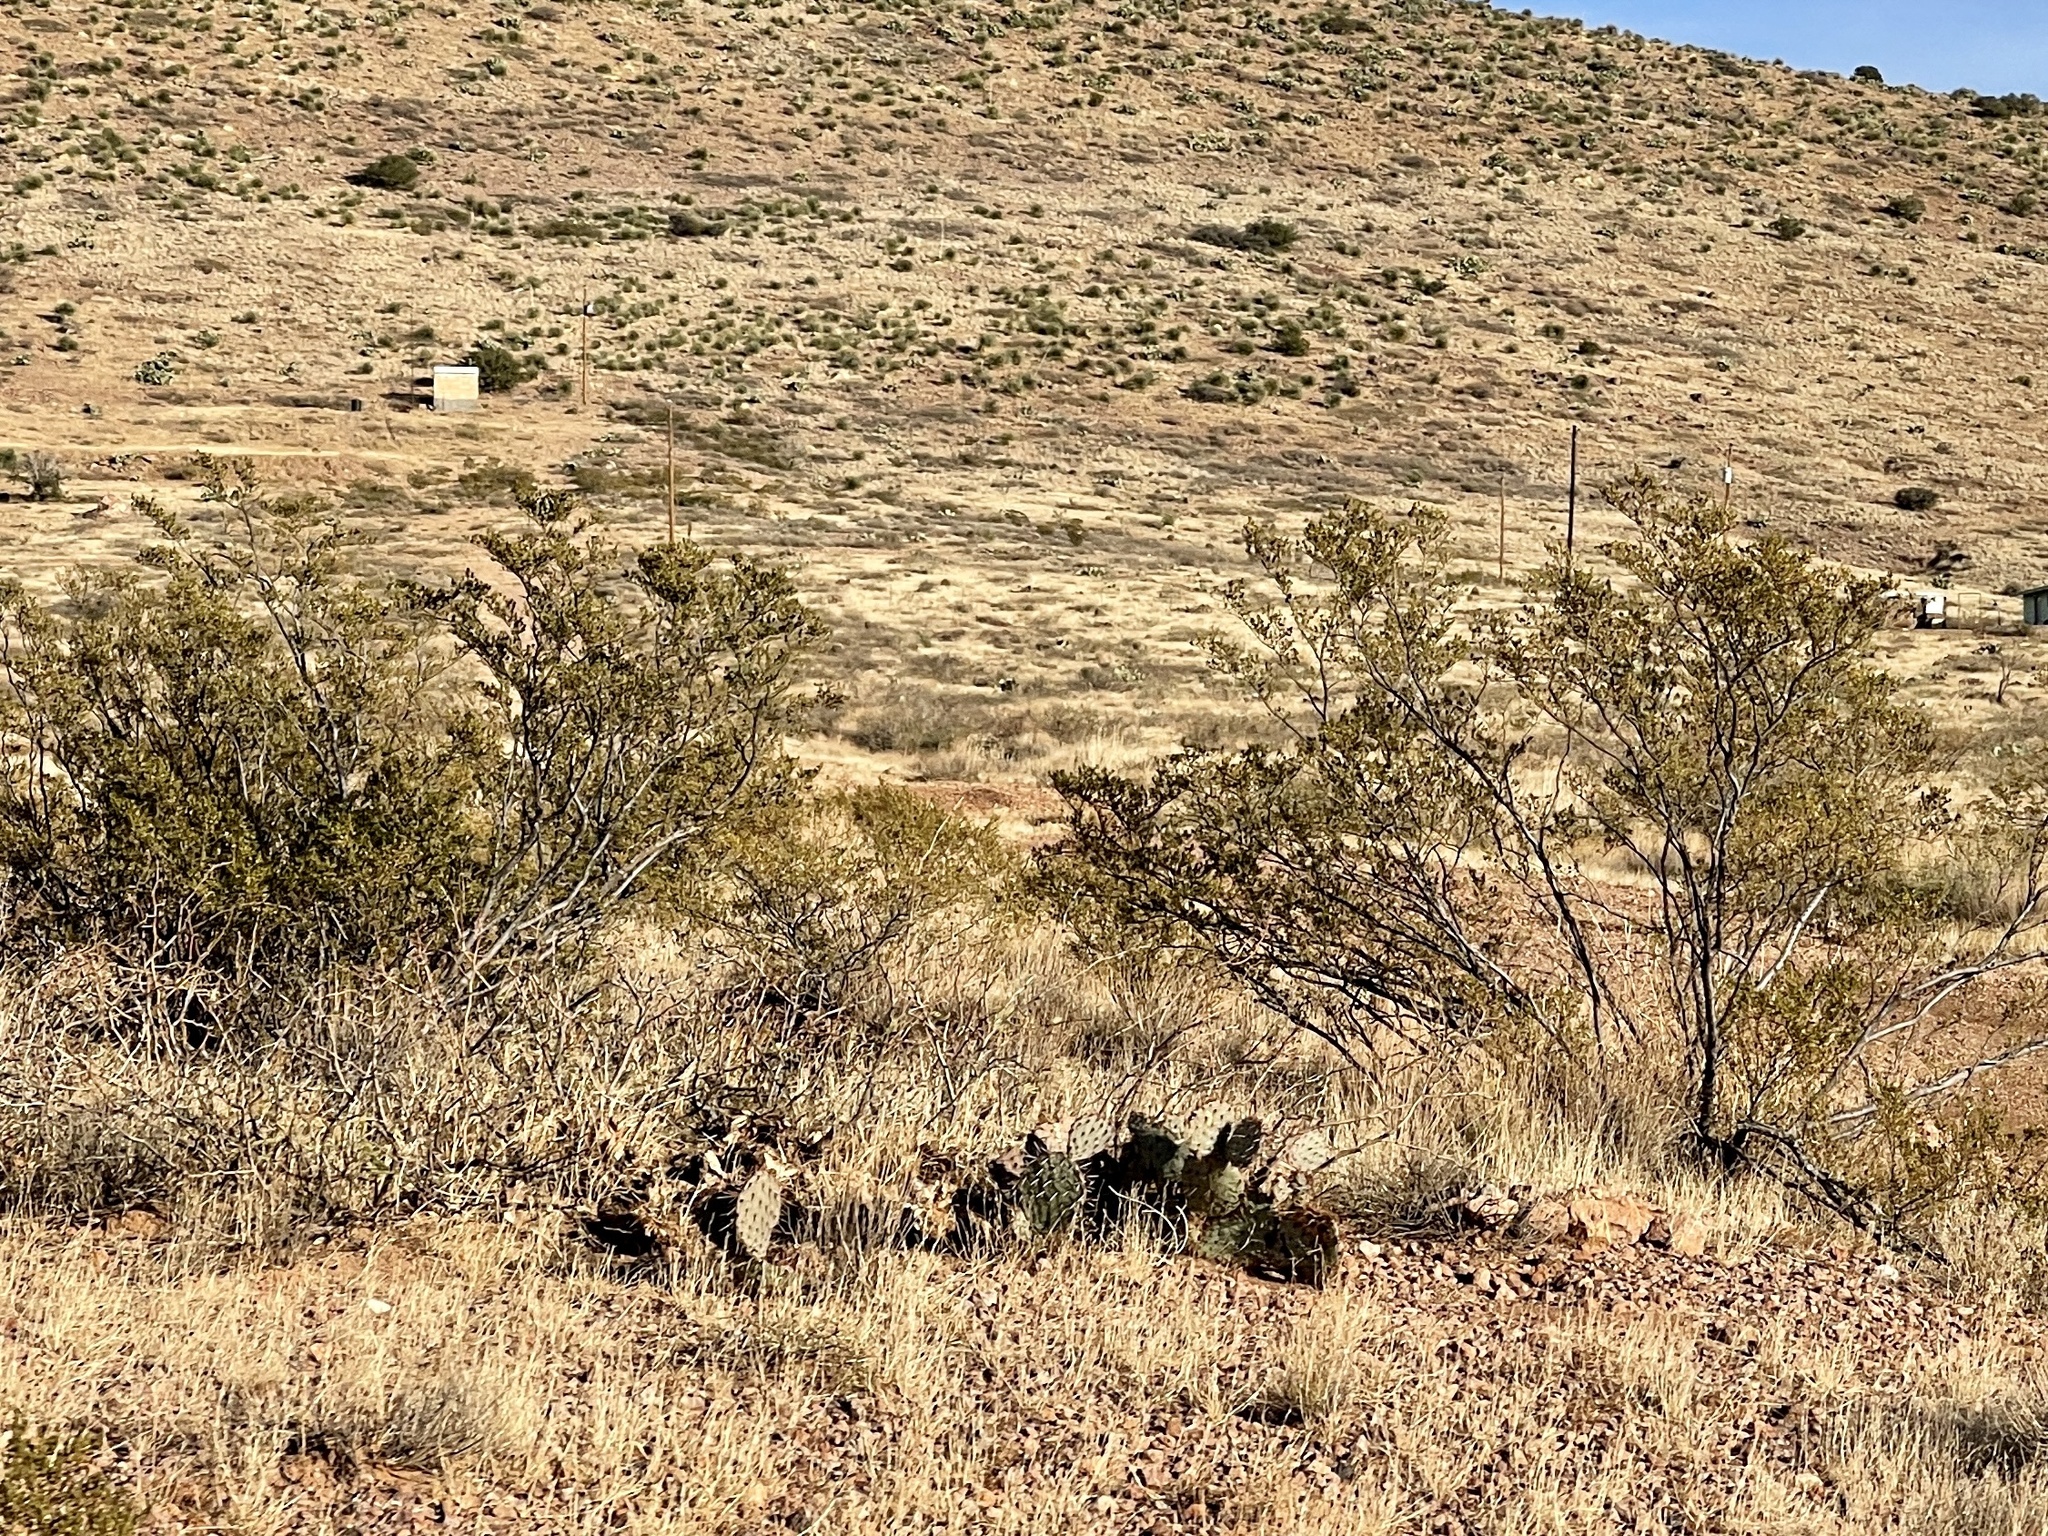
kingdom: Plantae
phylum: Tracheophyta
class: Magnoliopsida
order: Zygophyllales
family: Zygophyllaceae
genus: Larrea
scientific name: Larrea tridentata
